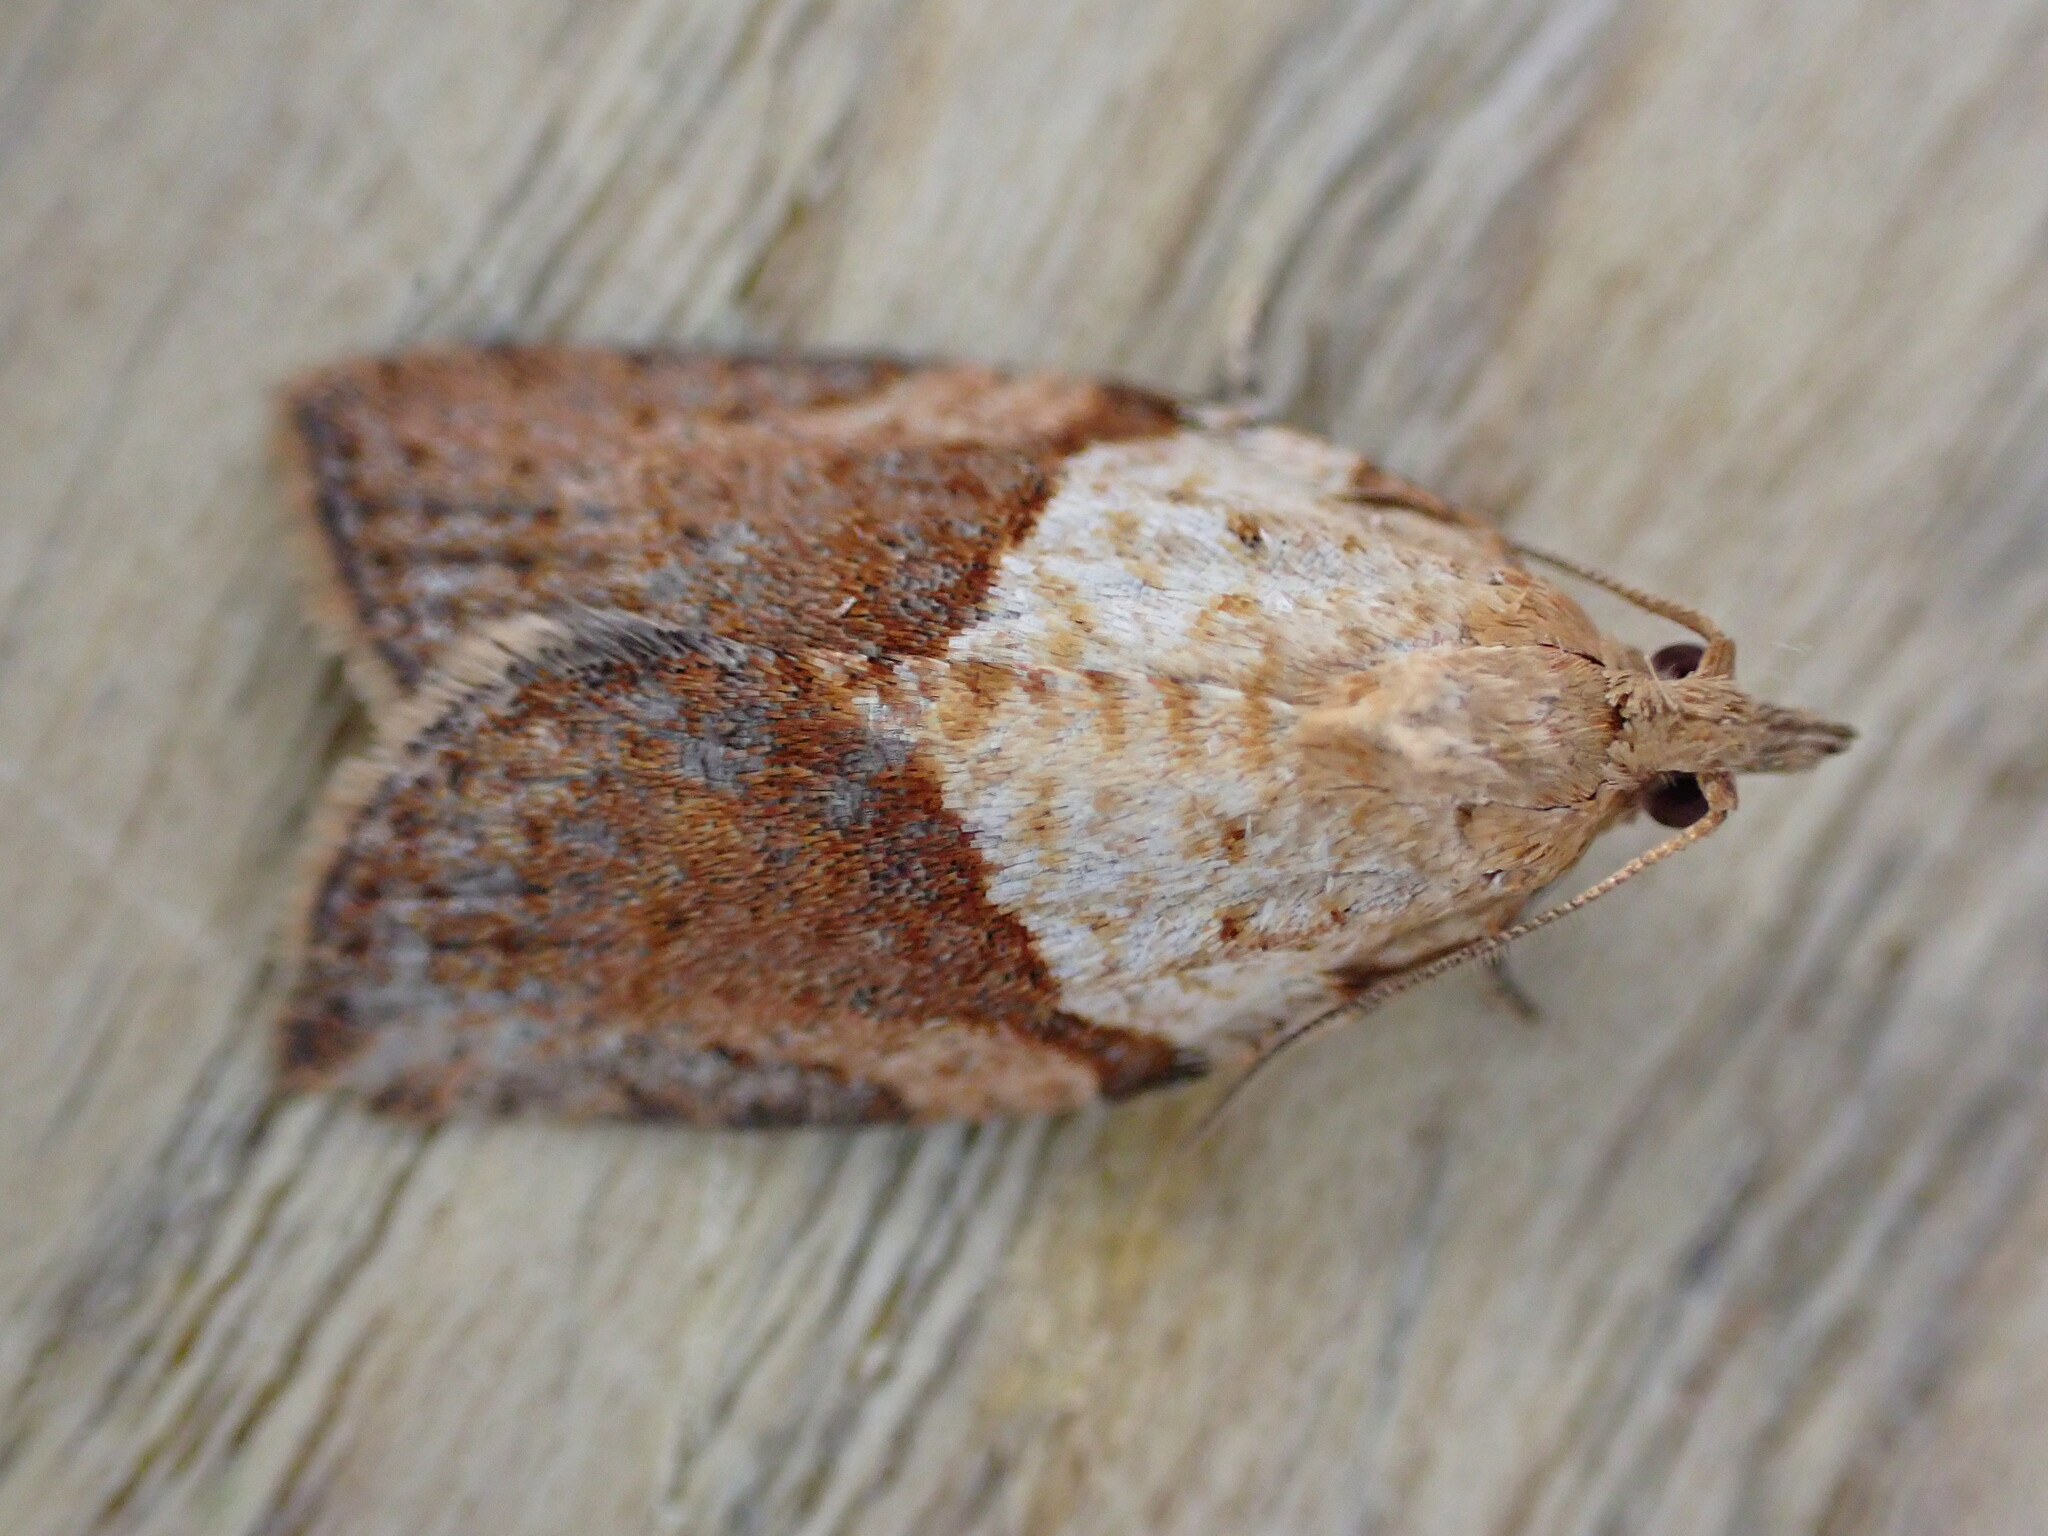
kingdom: Animalia
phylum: Arthropoda
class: Insecta
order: Lepidoptera
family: Tortricidae
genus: Epiphyas
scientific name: Epiphyas postvittana
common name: Light brown apple moth
